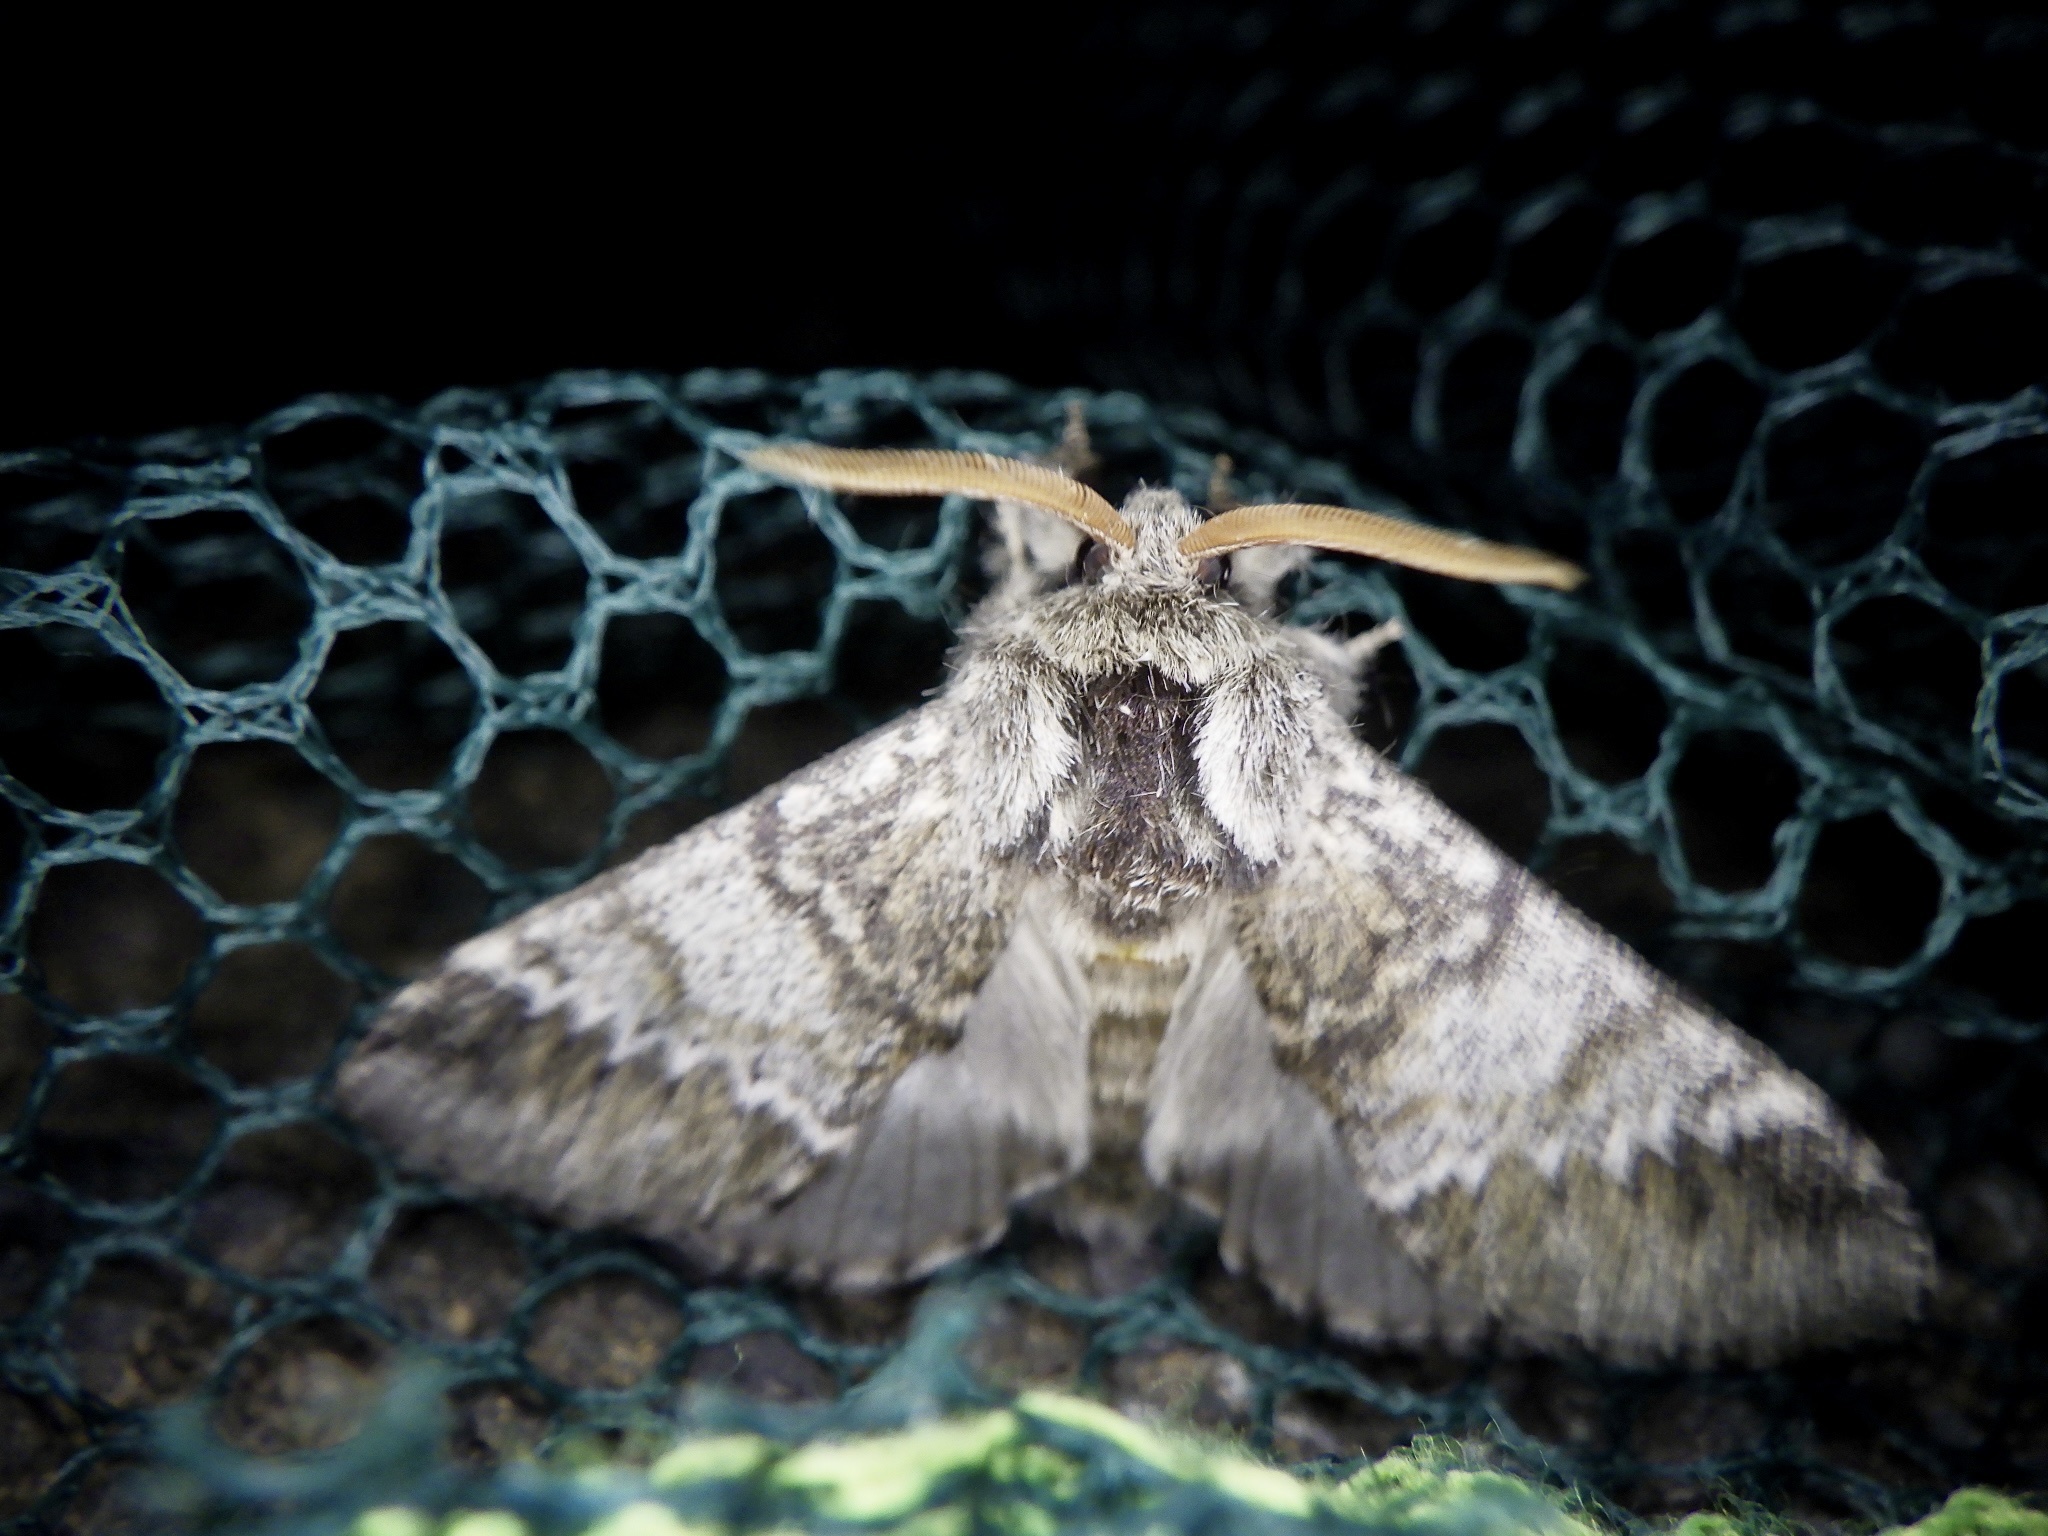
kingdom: Animalia
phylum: Arthropoda
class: Insecta
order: Lepidoptera
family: Notodontidae
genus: Drymonia
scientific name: Drymonia basalis
